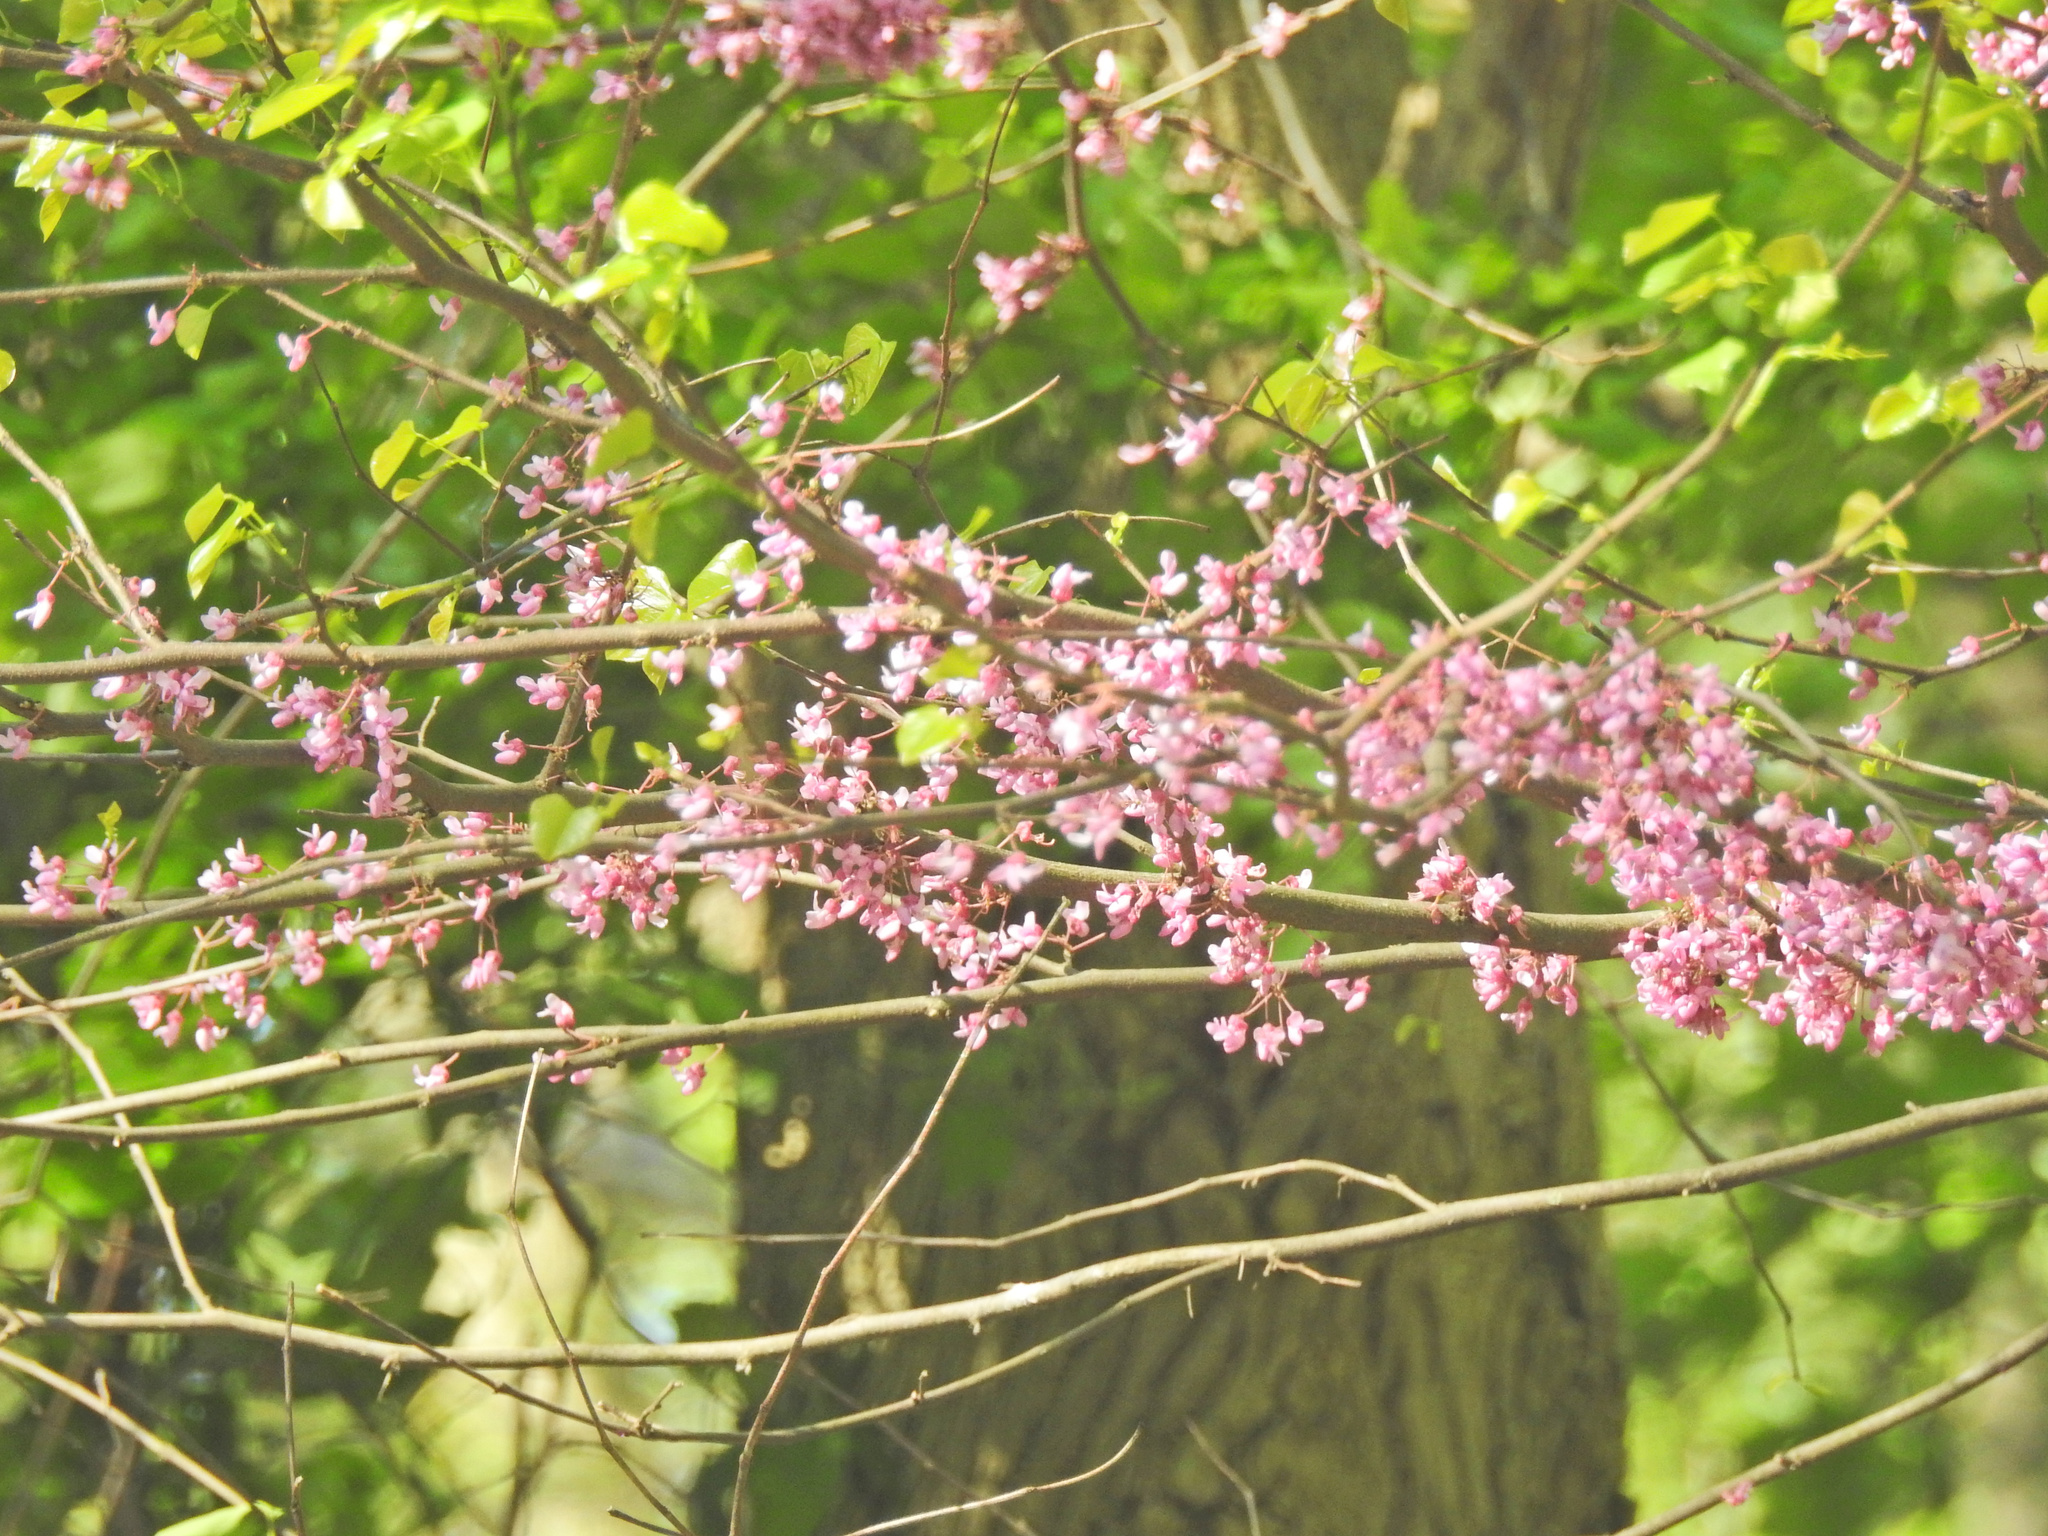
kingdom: Plantae
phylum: Tracheophyta
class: Magnoliopsida
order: Fabales
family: Fabaceae
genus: Cercis
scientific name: Cercis canadensis
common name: Eastern redbud
